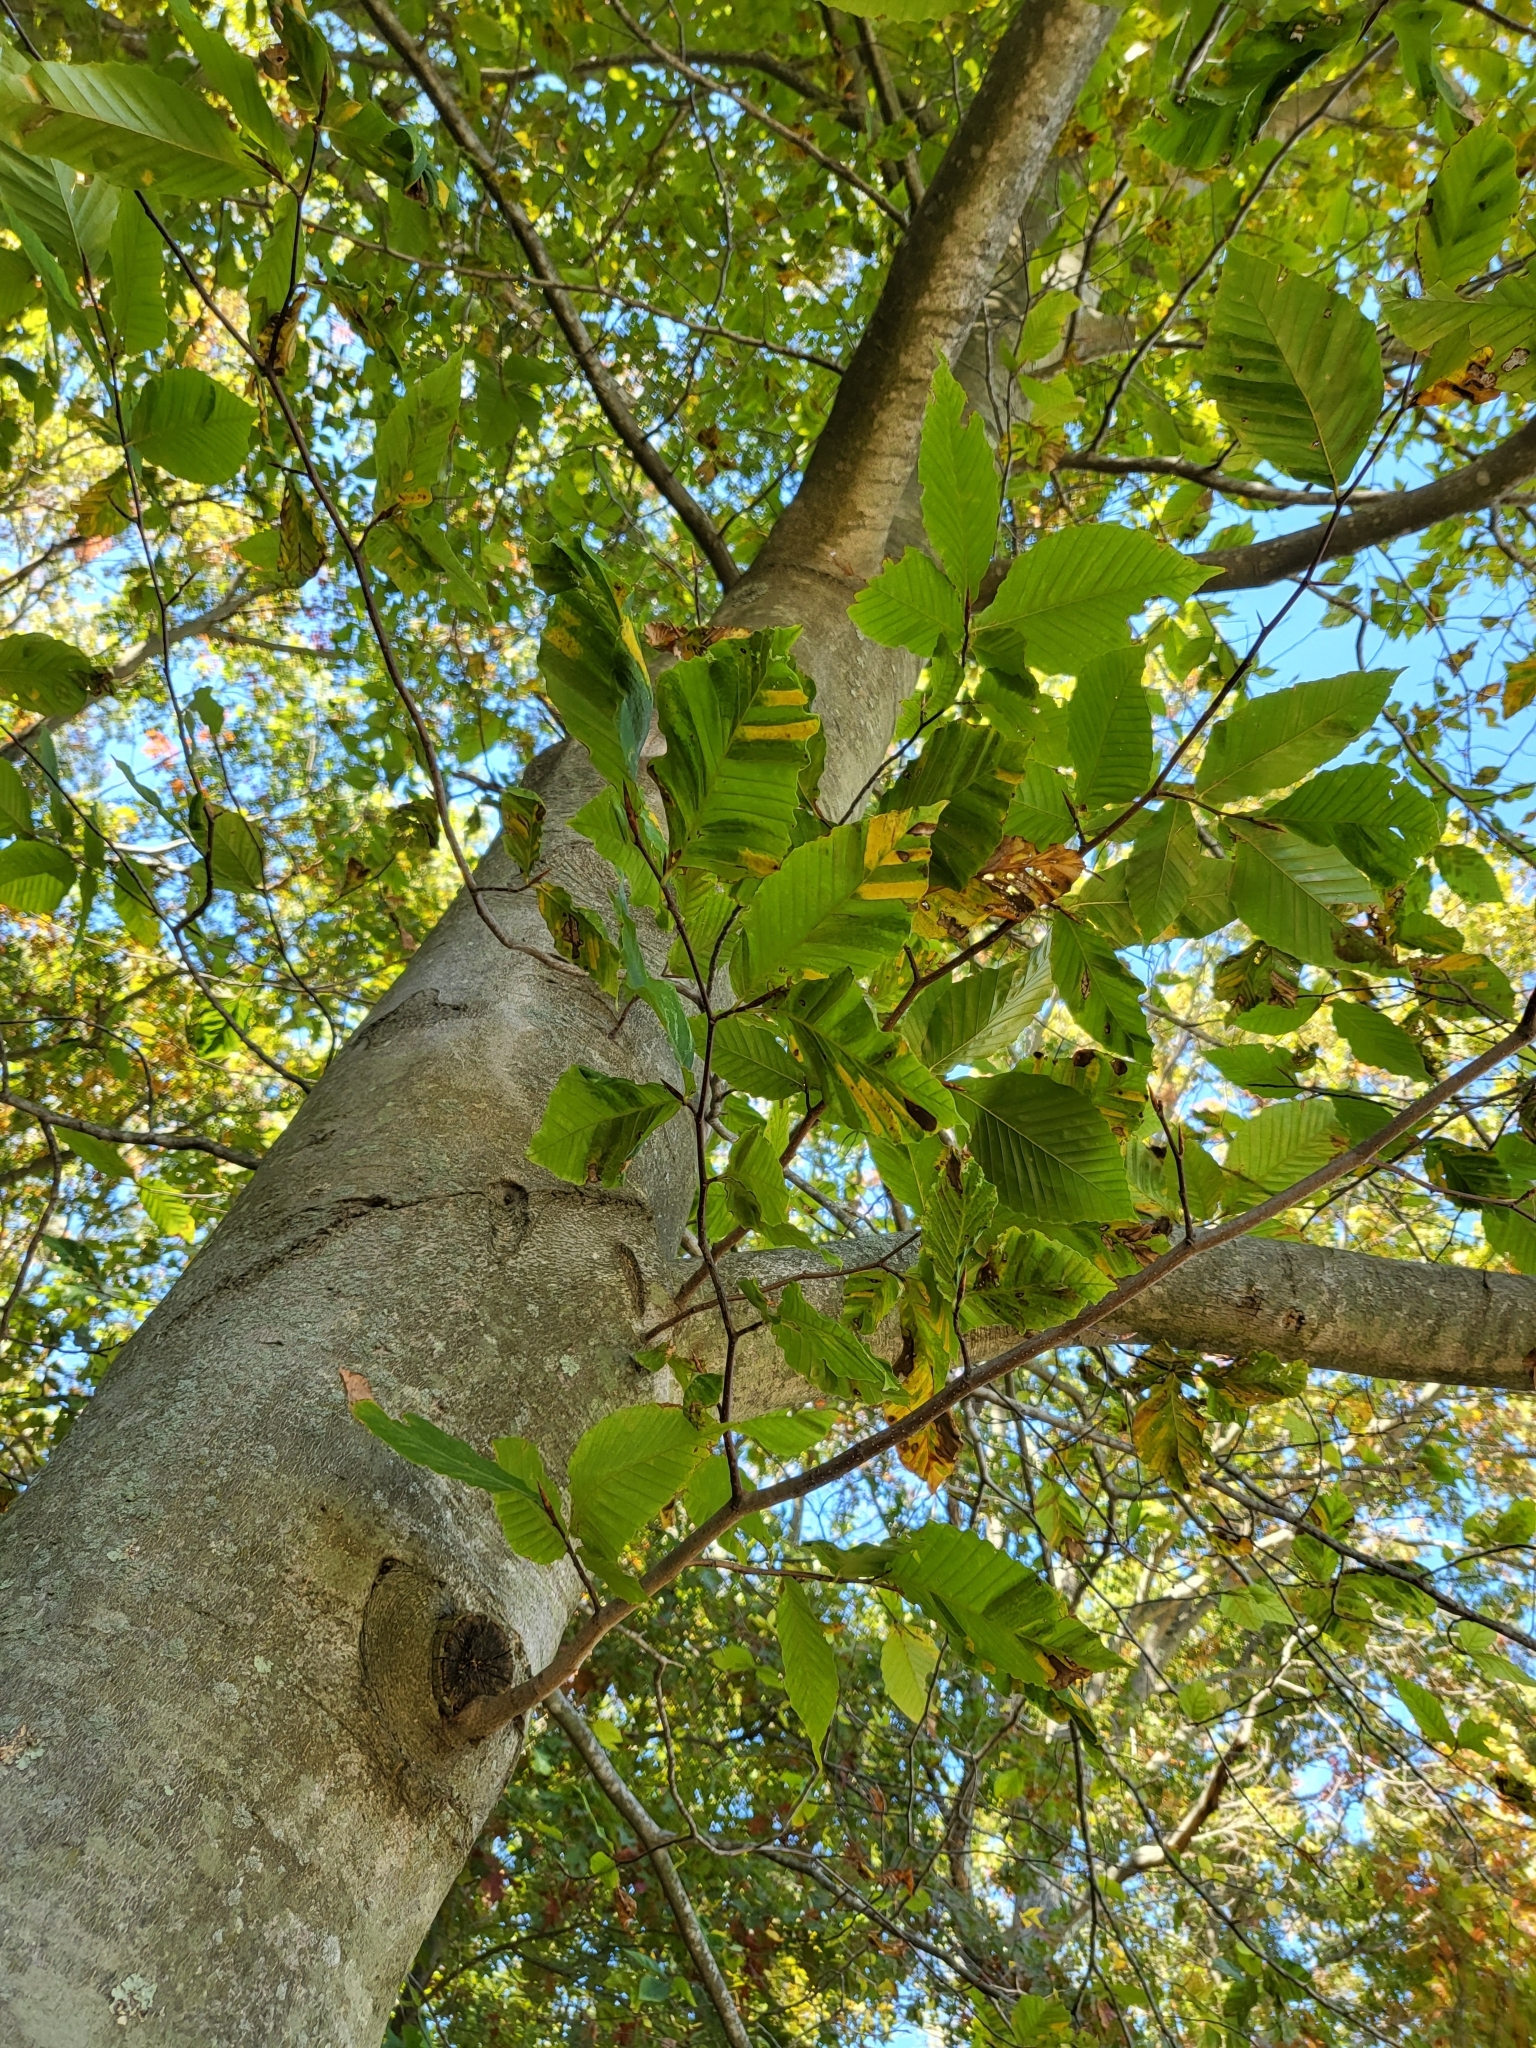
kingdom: Plantae
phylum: Tracheophyta
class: Magnoliopsida
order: Fagales
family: Fagaceae
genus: Fagus
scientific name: Fagus grandifolia
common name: American beech
